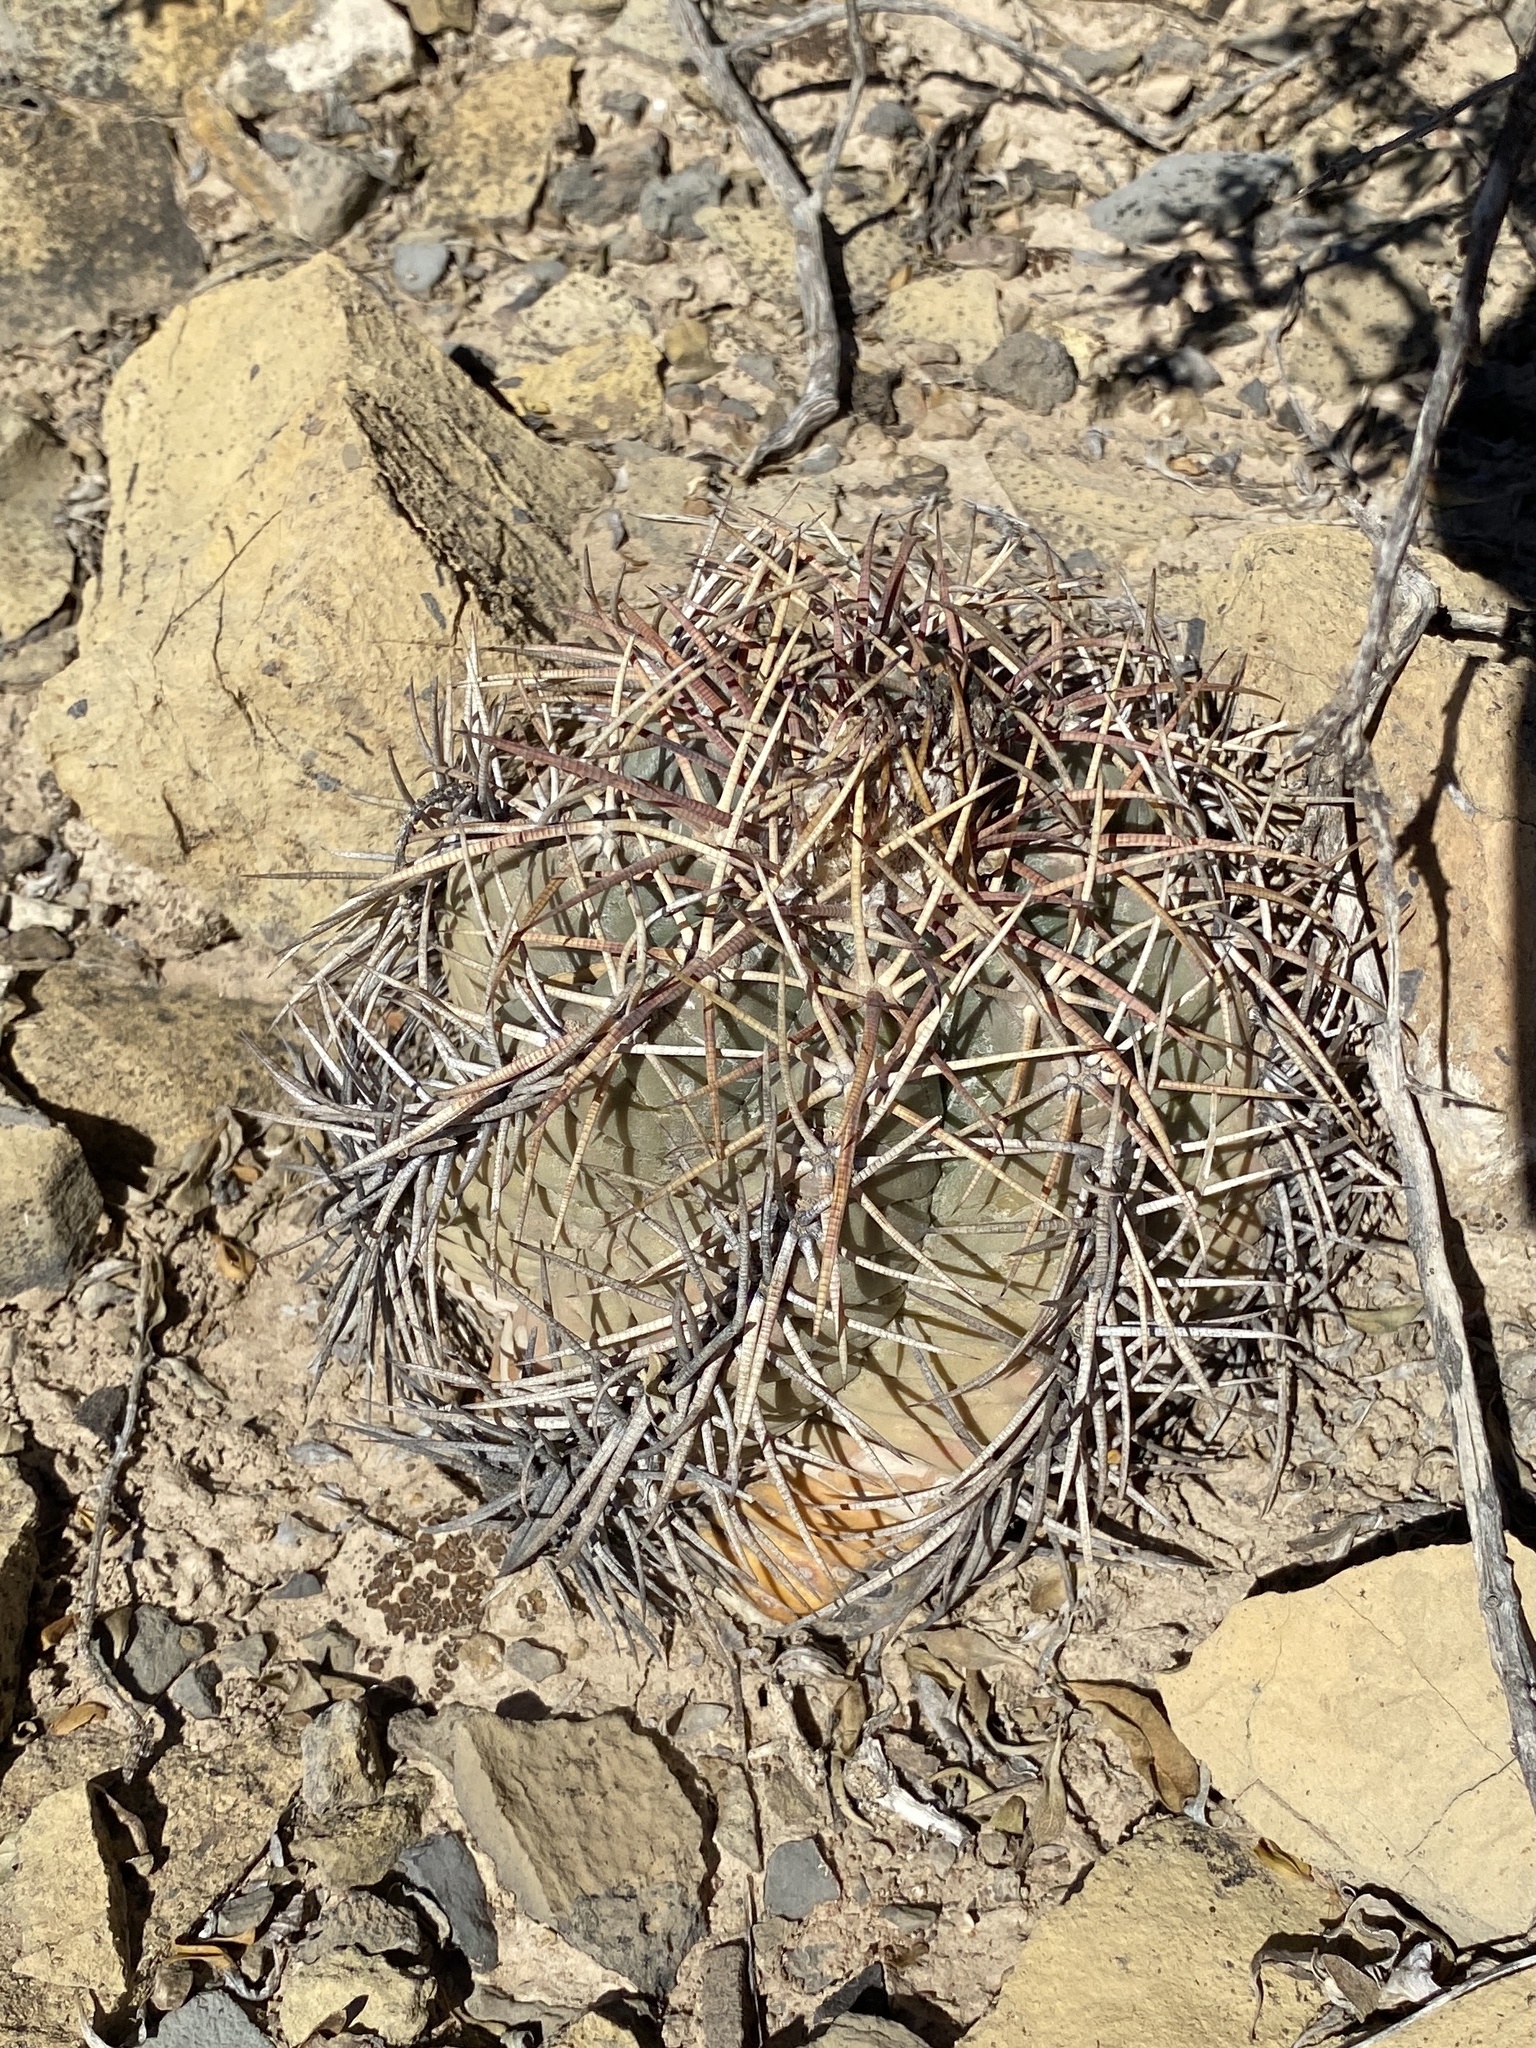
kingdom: Plantae
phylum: Tracheophyta
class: Magnoliopsida
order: Caryophyllales
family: Cactaceae
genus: Echinocactus
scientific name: Echinocactus horizonthalonius
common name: Devilshead
